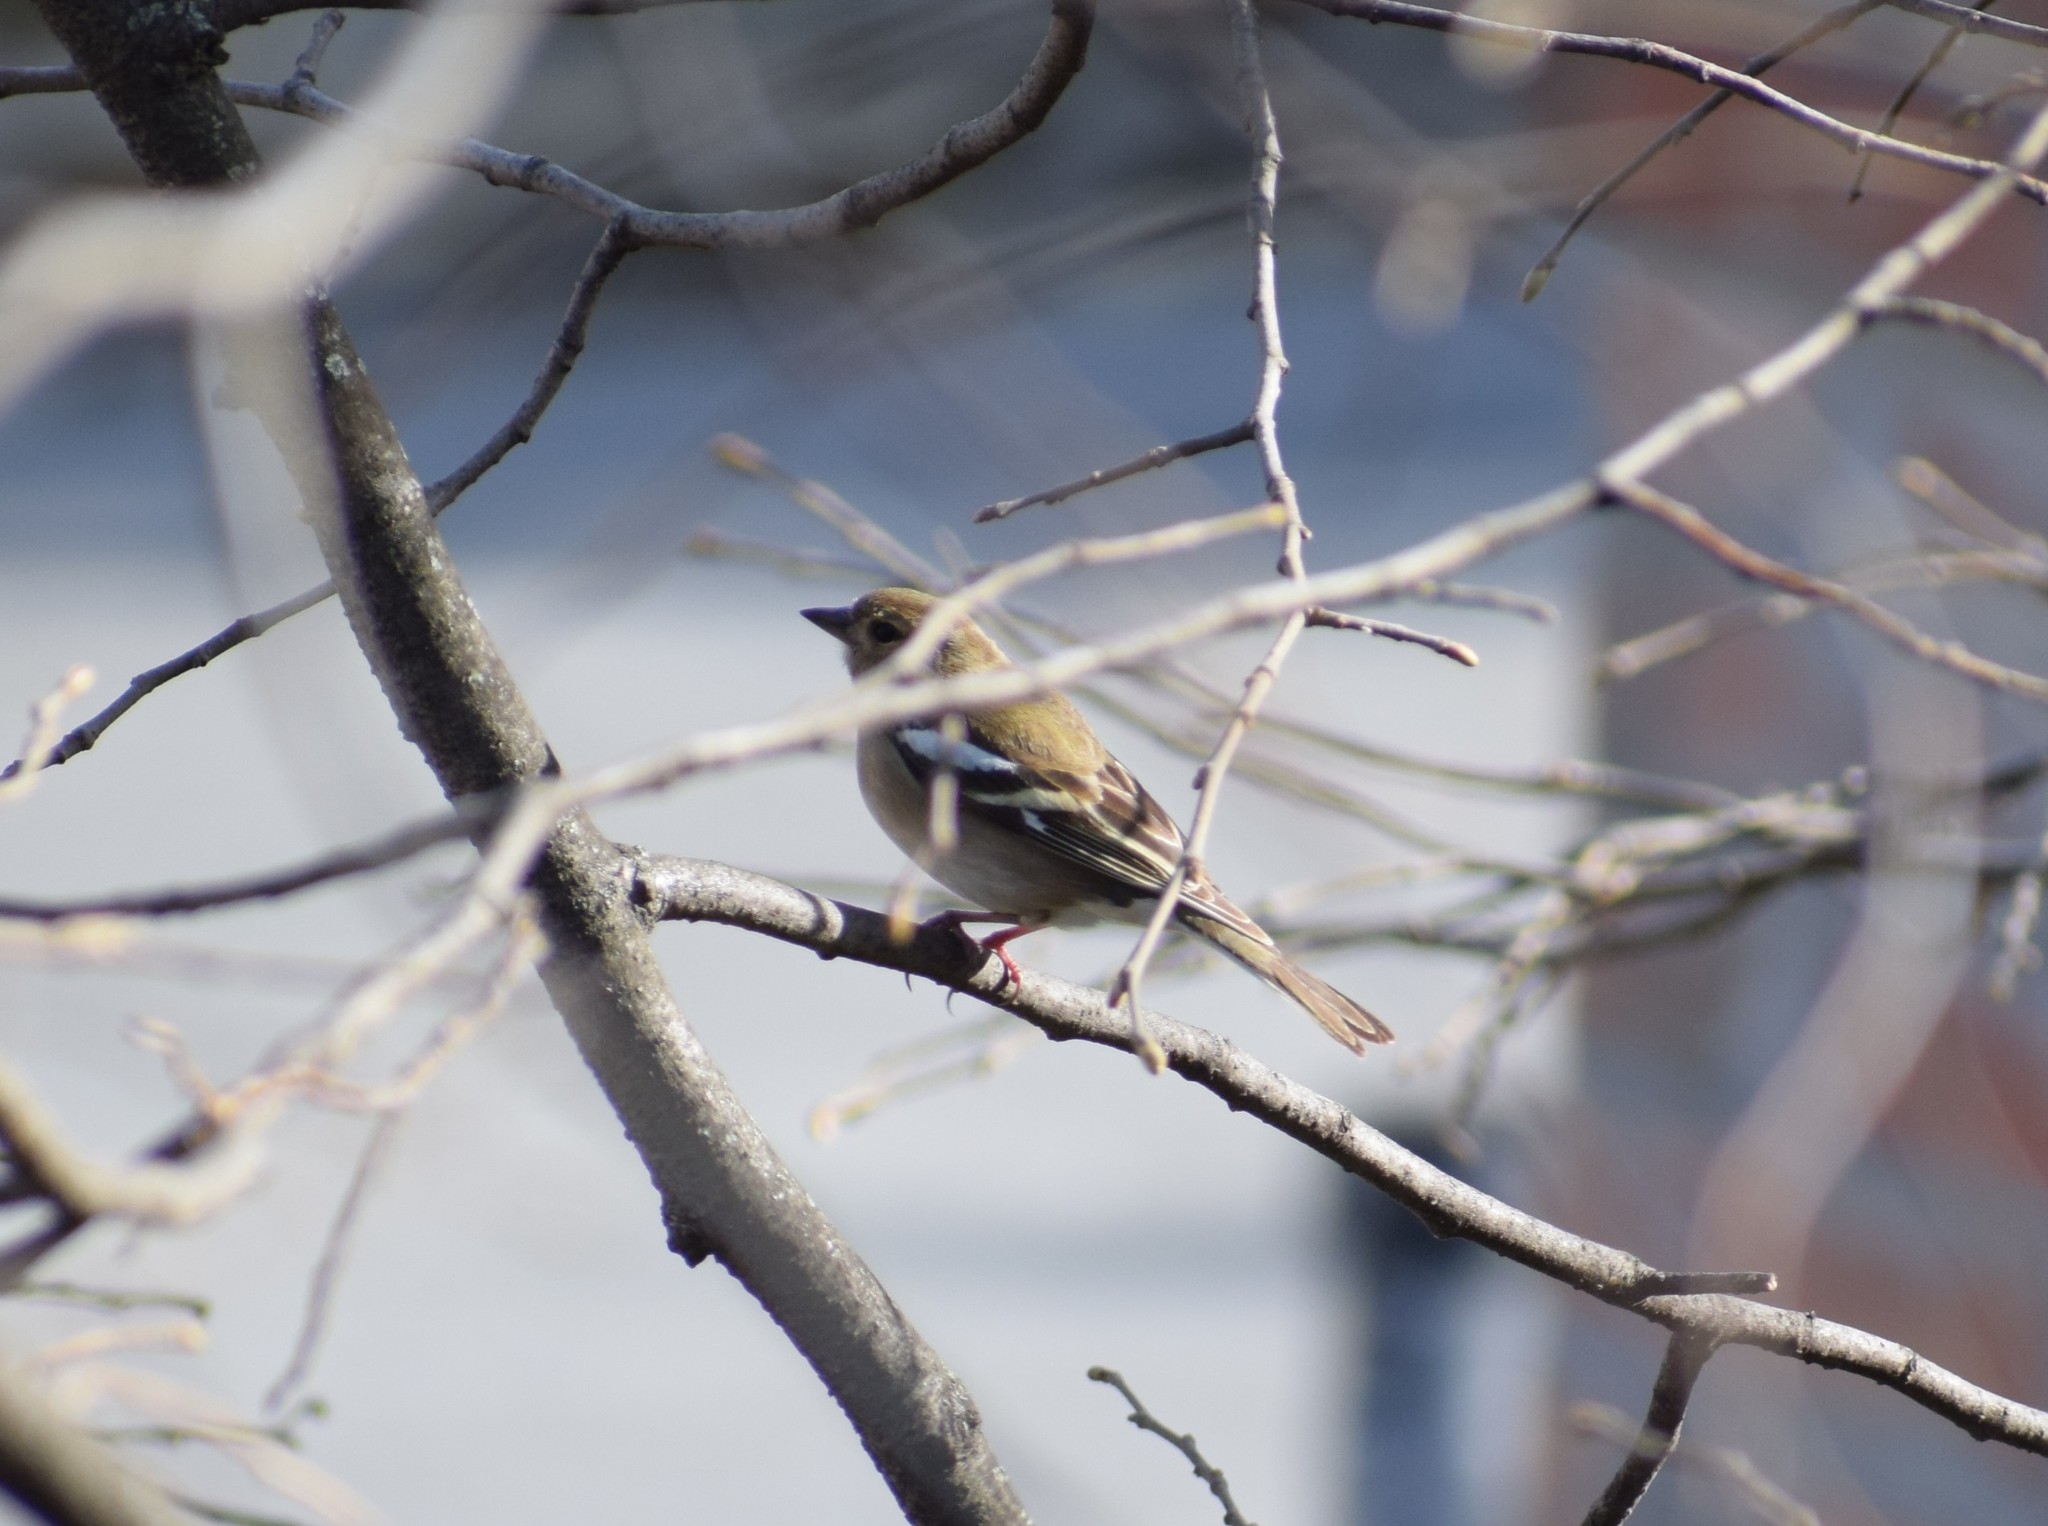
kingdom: Animalia
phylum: Chordata
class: Aves
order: Passeriformes
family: Fringillidae
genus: Fringilla
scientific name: Fringilla coelebs
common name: Common chaffinch
